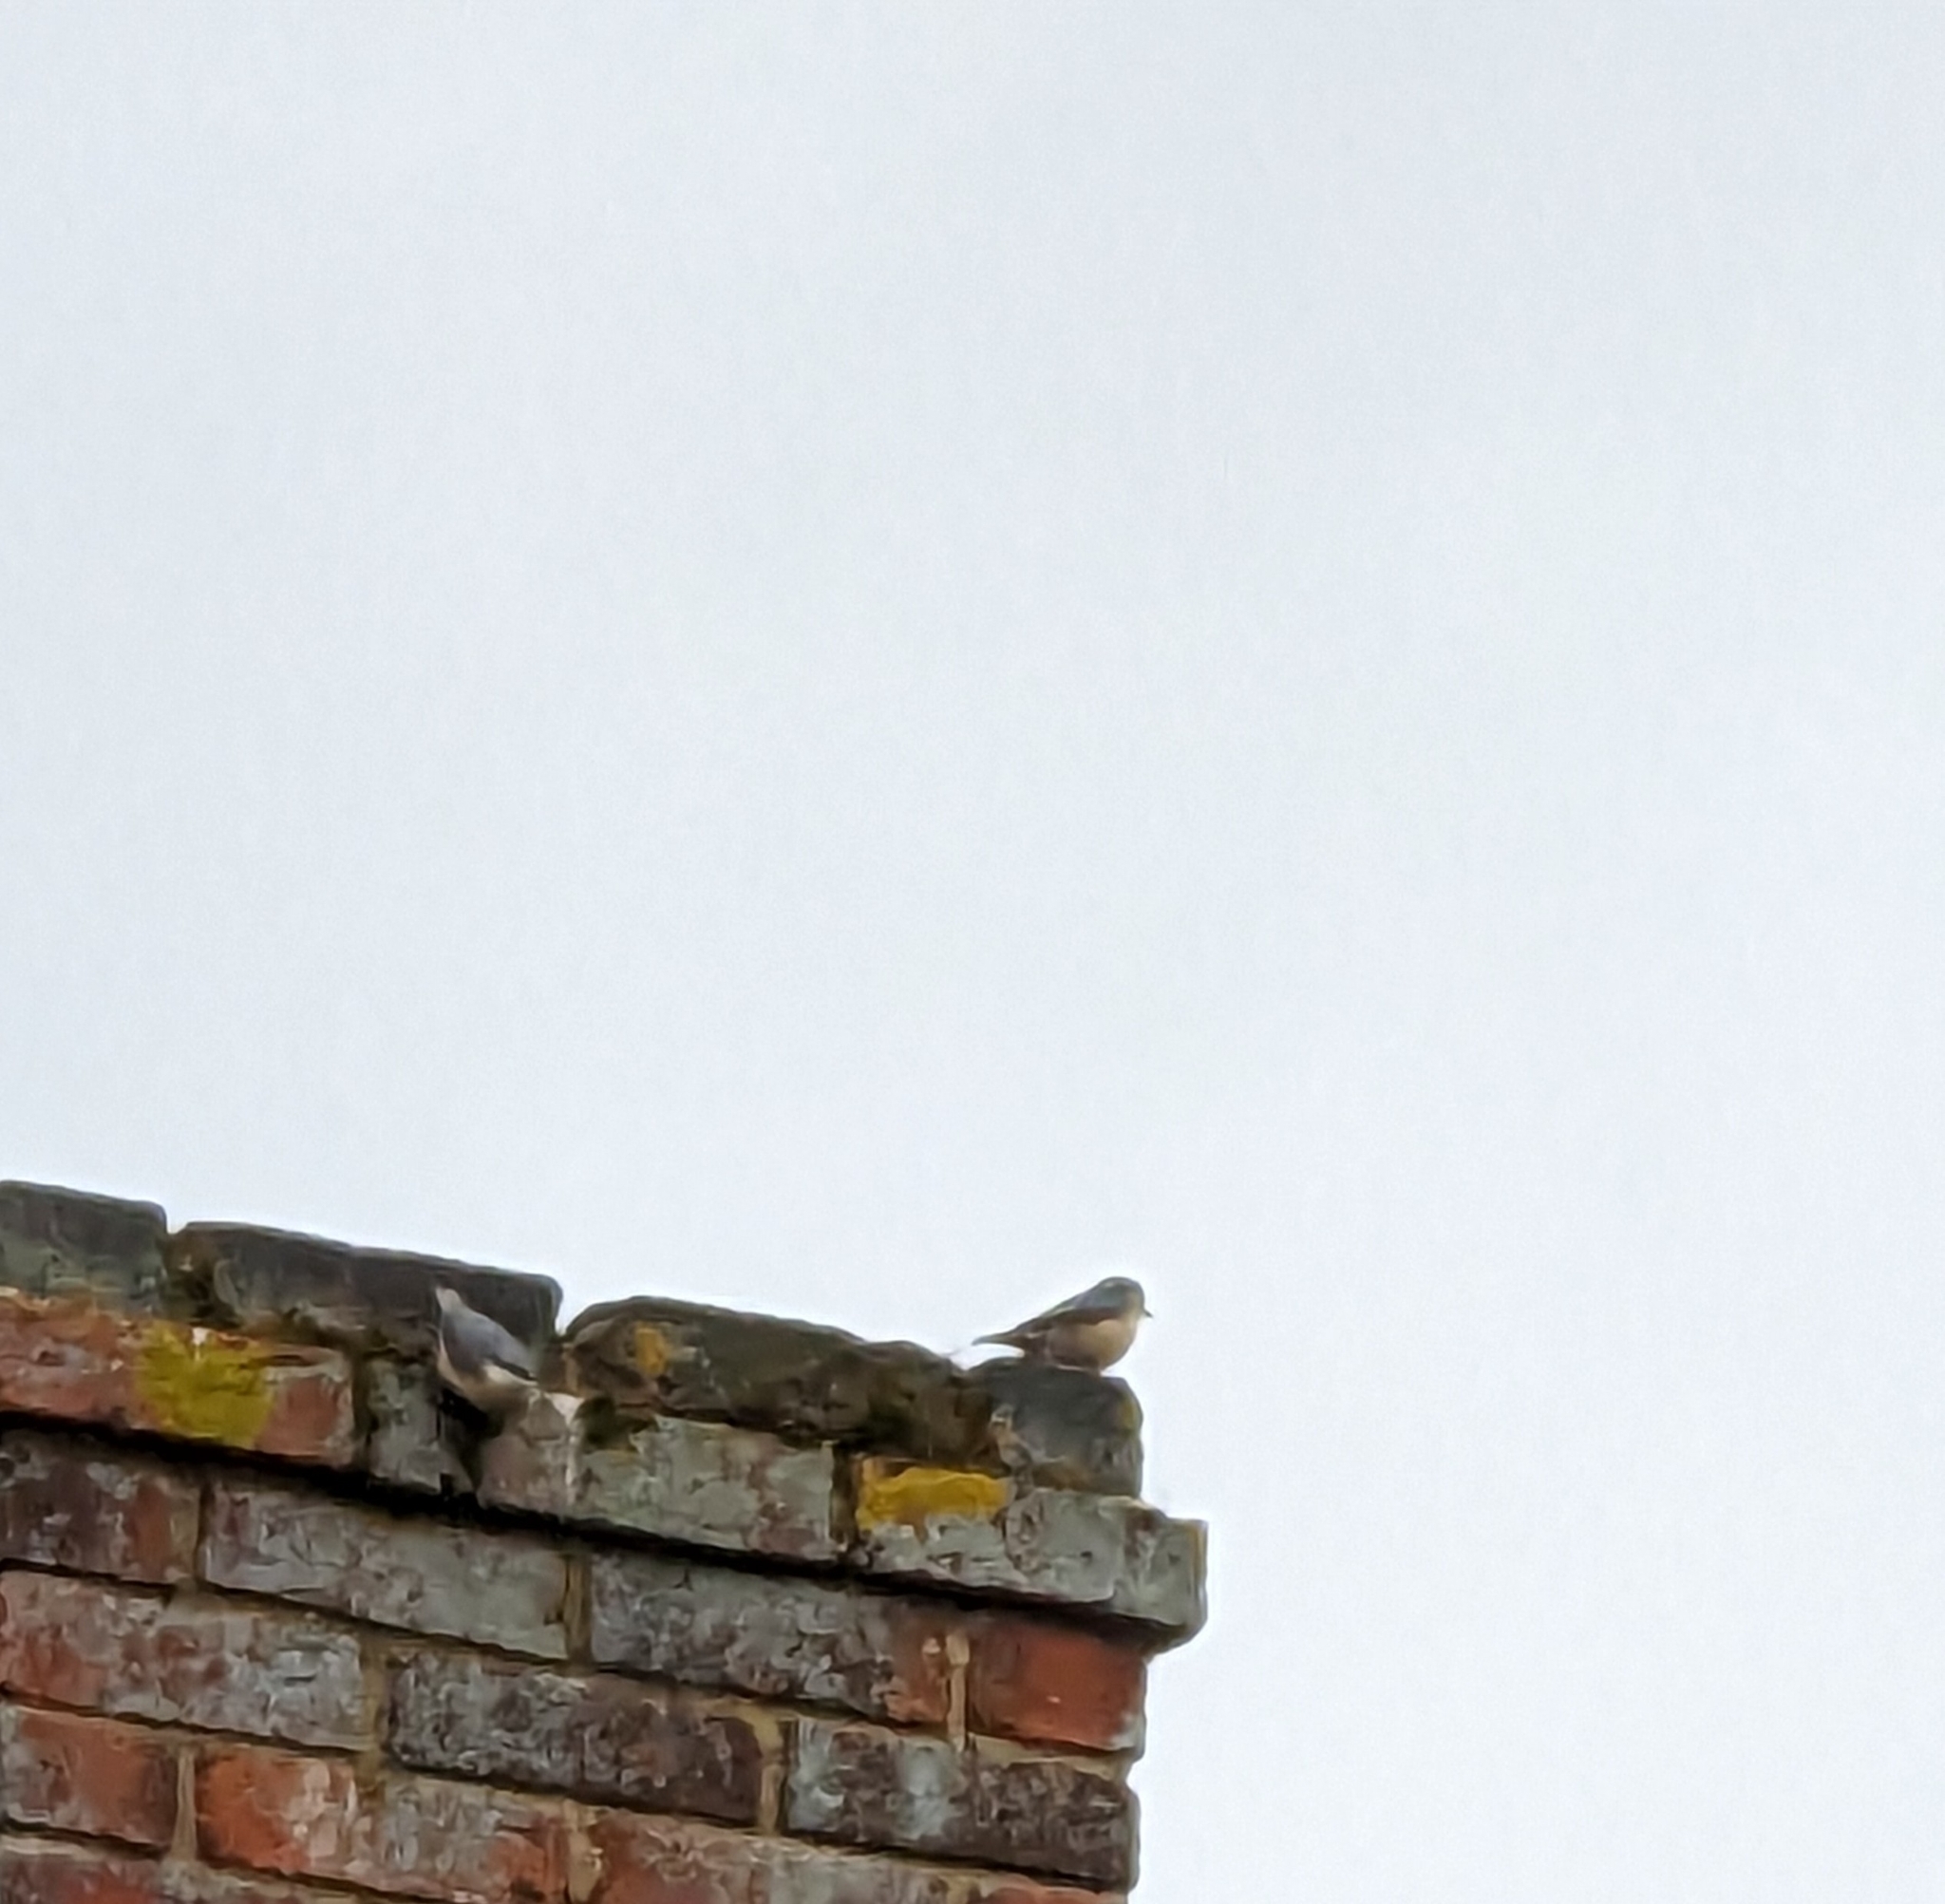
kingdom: Animalia
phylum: Chordata
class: Aves
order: Passeriformes
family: Sittidae
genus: Sitta
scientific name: Sitta europaea
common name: Eurasian nuthatch
